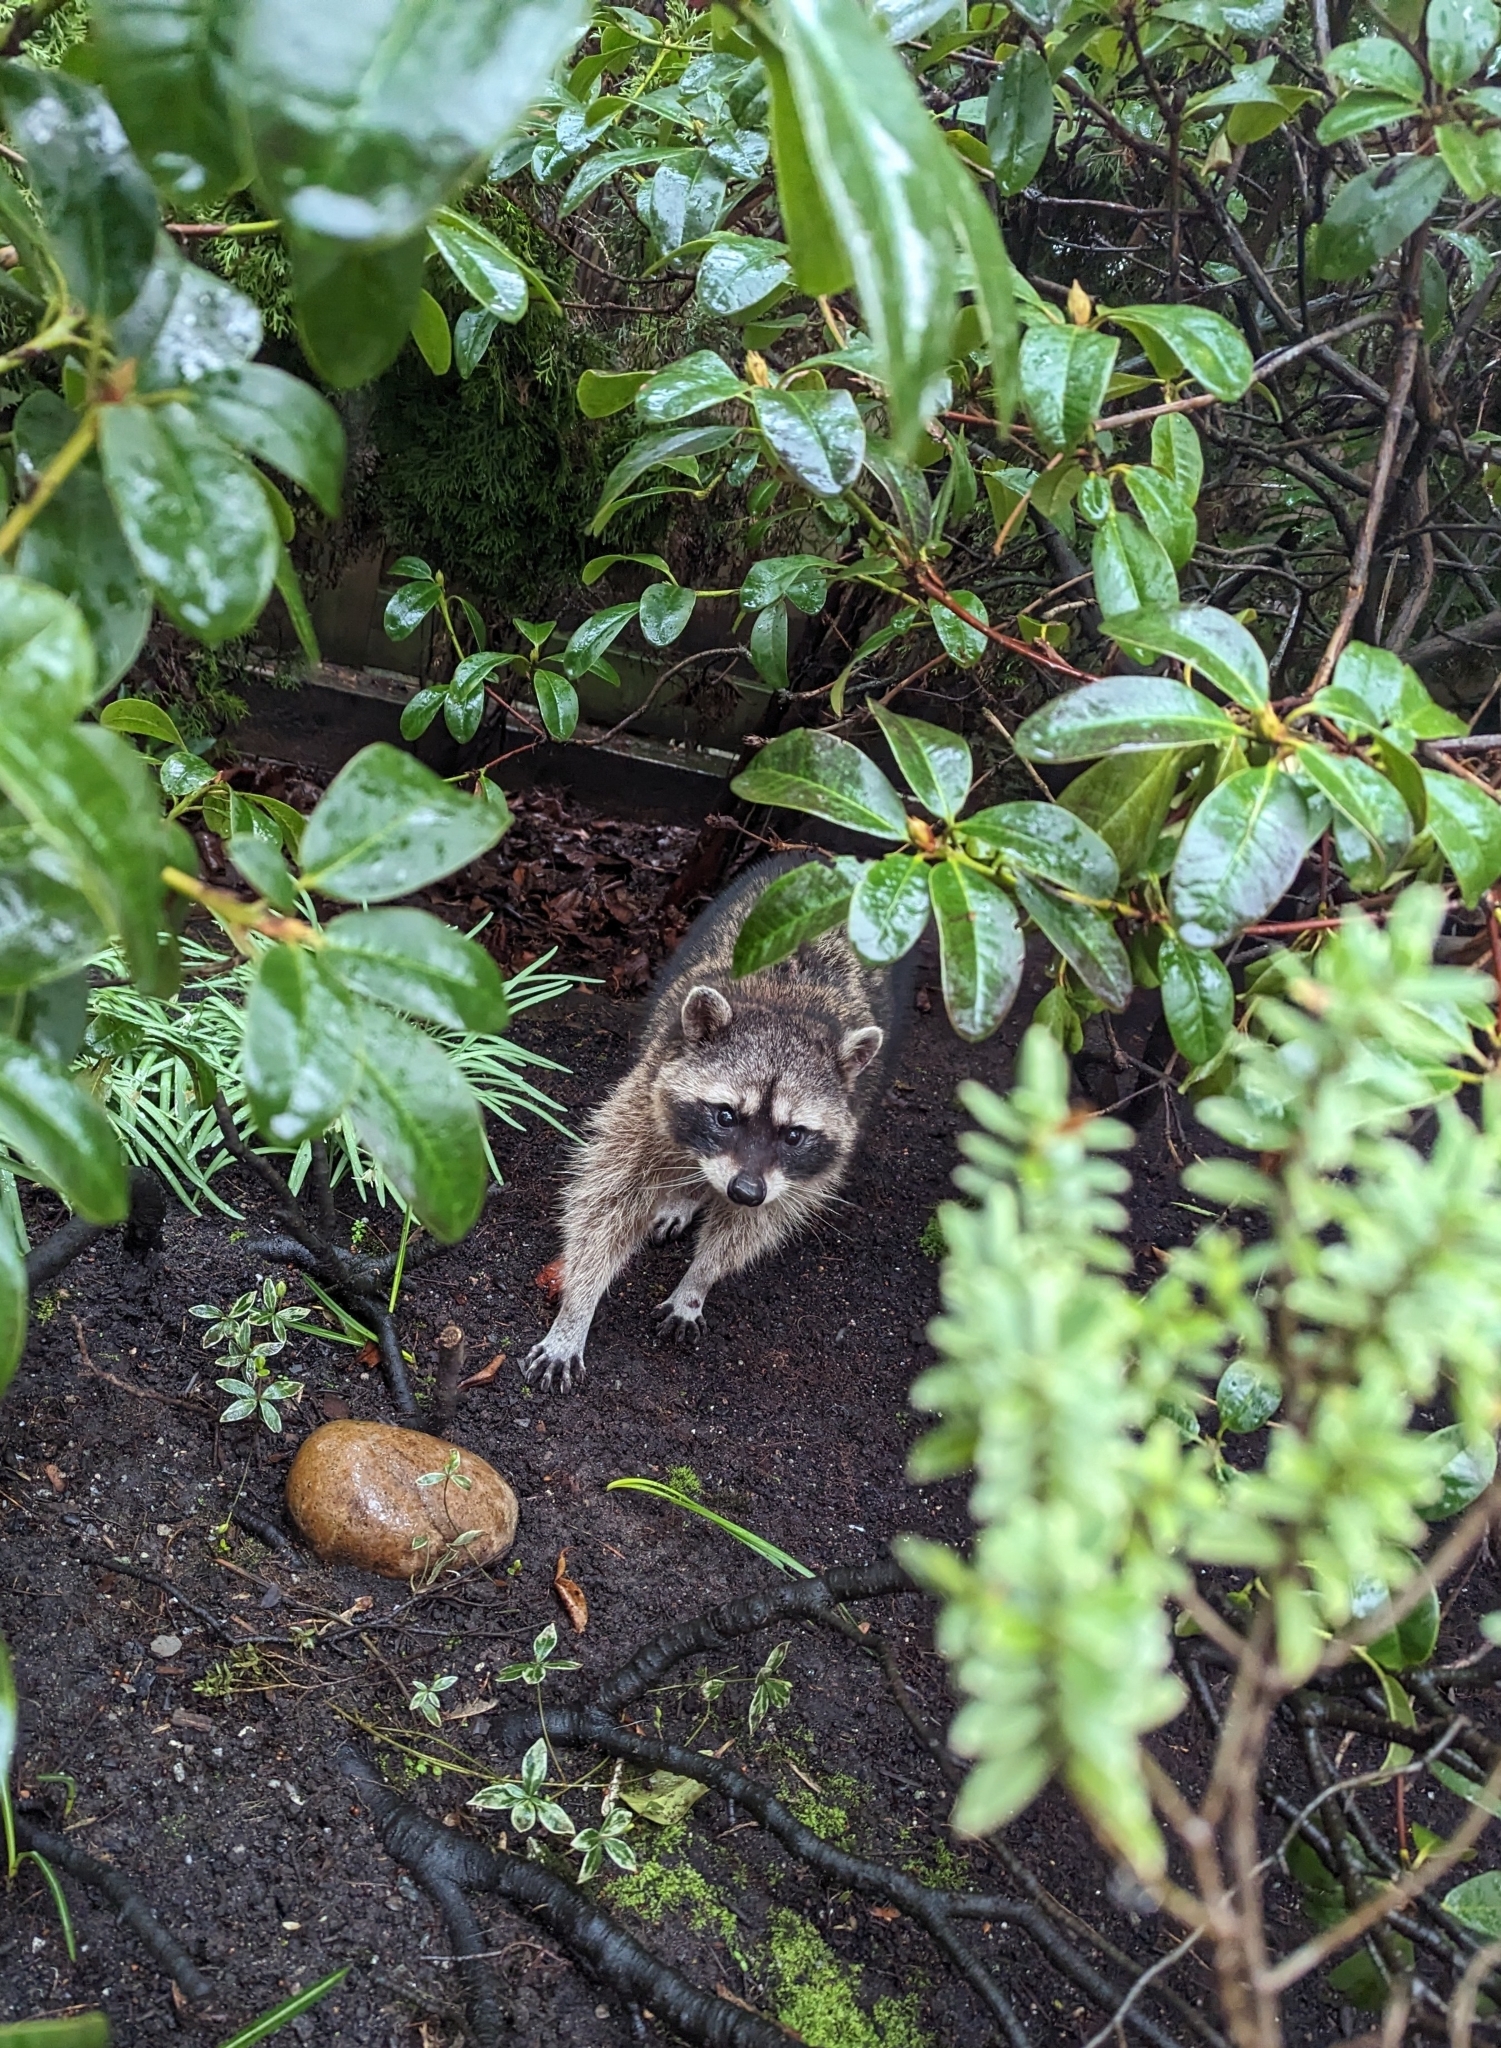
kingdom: Animalia
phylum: Chordata
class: Mammalia
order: Carnivora
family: Procyonidae
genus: Procyon
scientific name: Procyon lotor
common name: Raccoon
